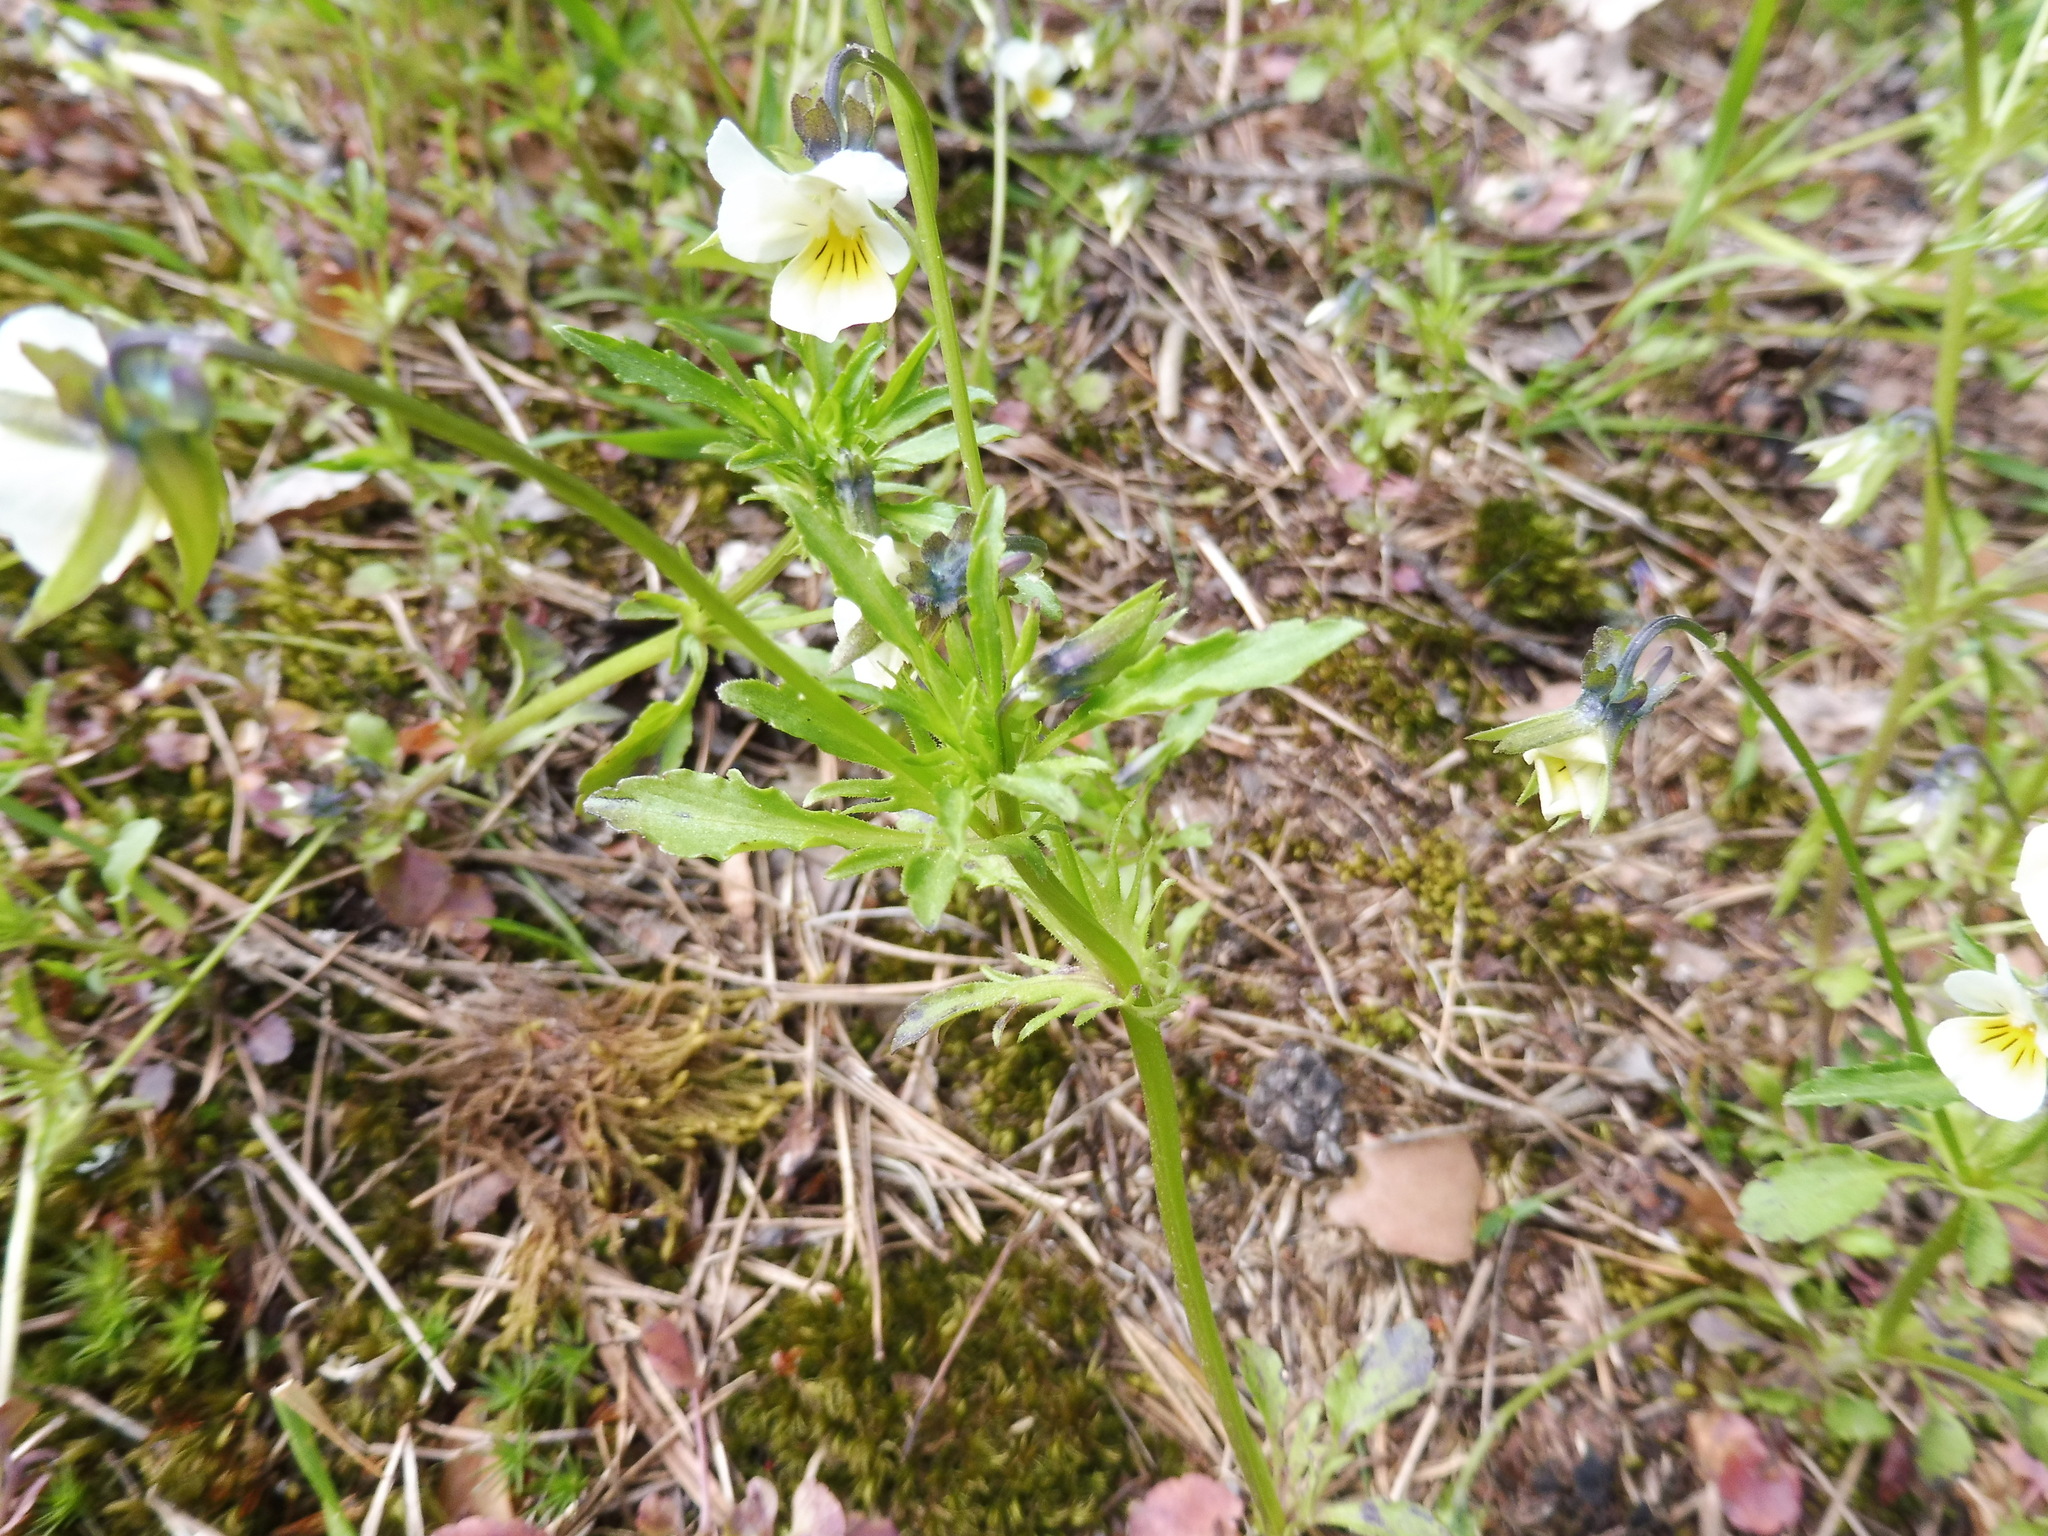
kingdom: Plantae
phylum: Tracheophyta
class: Magnoliopsida
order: Malpighiales
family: Violaceae
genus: Viola
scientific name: Viola arvensis
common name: Field pansy
